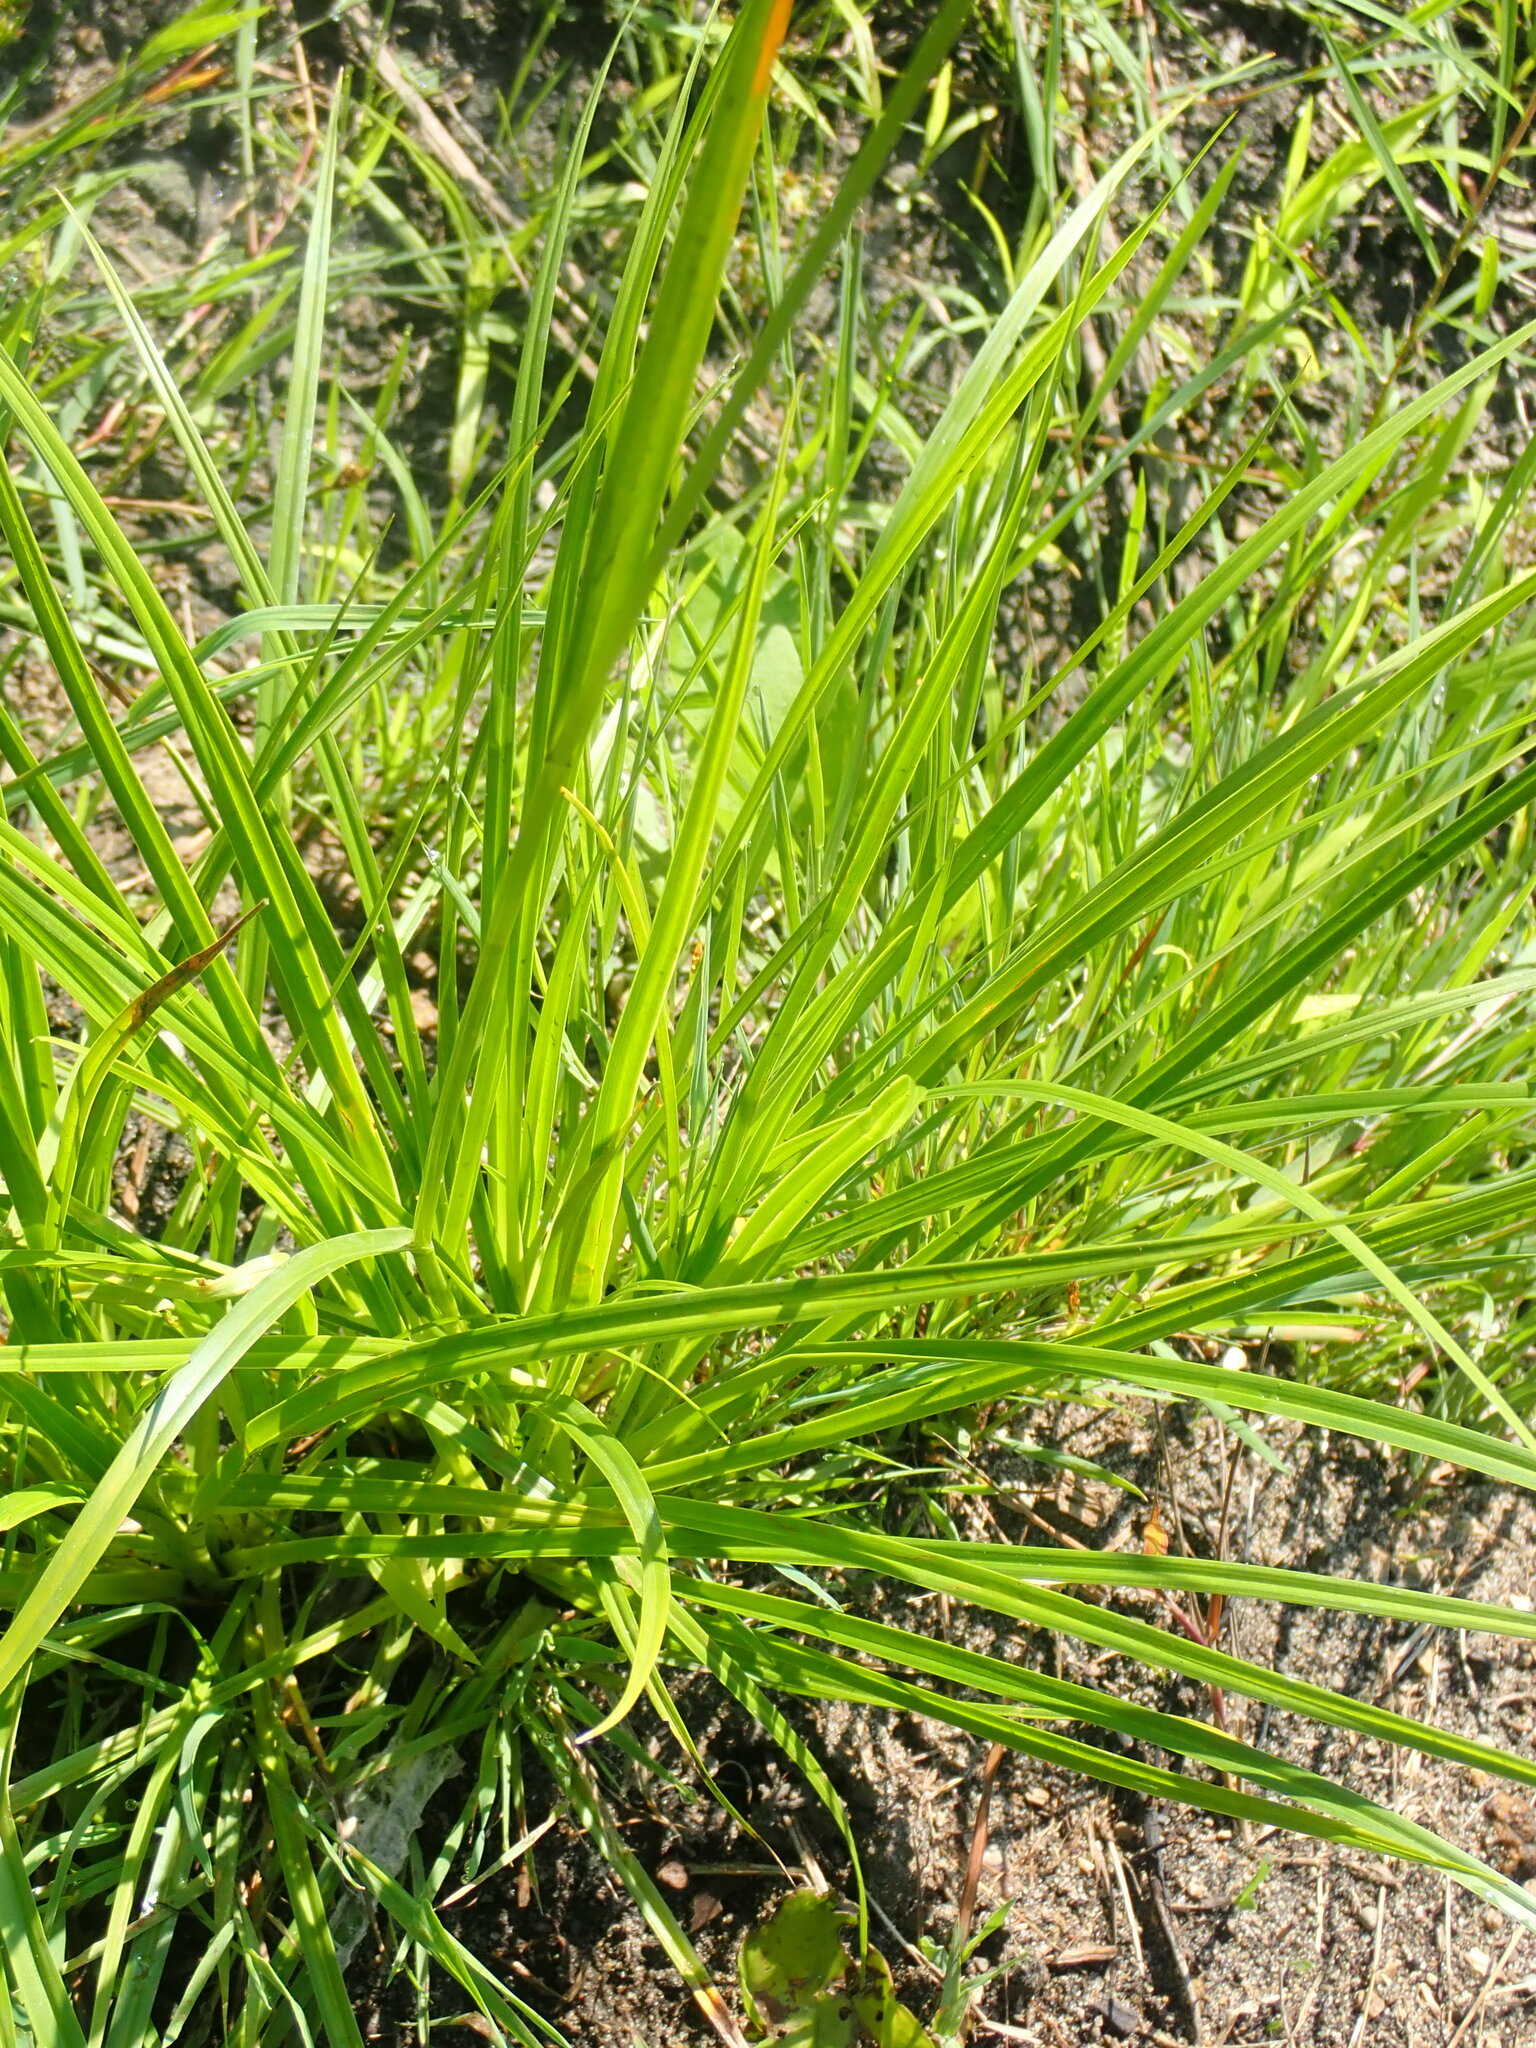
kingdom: Plantae
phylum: Tracheophyta
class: Liliopsida
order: Poales
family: Cyperaceae
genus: Scirpus
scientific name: Scirpus pendulus
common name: Nodding bulrush
